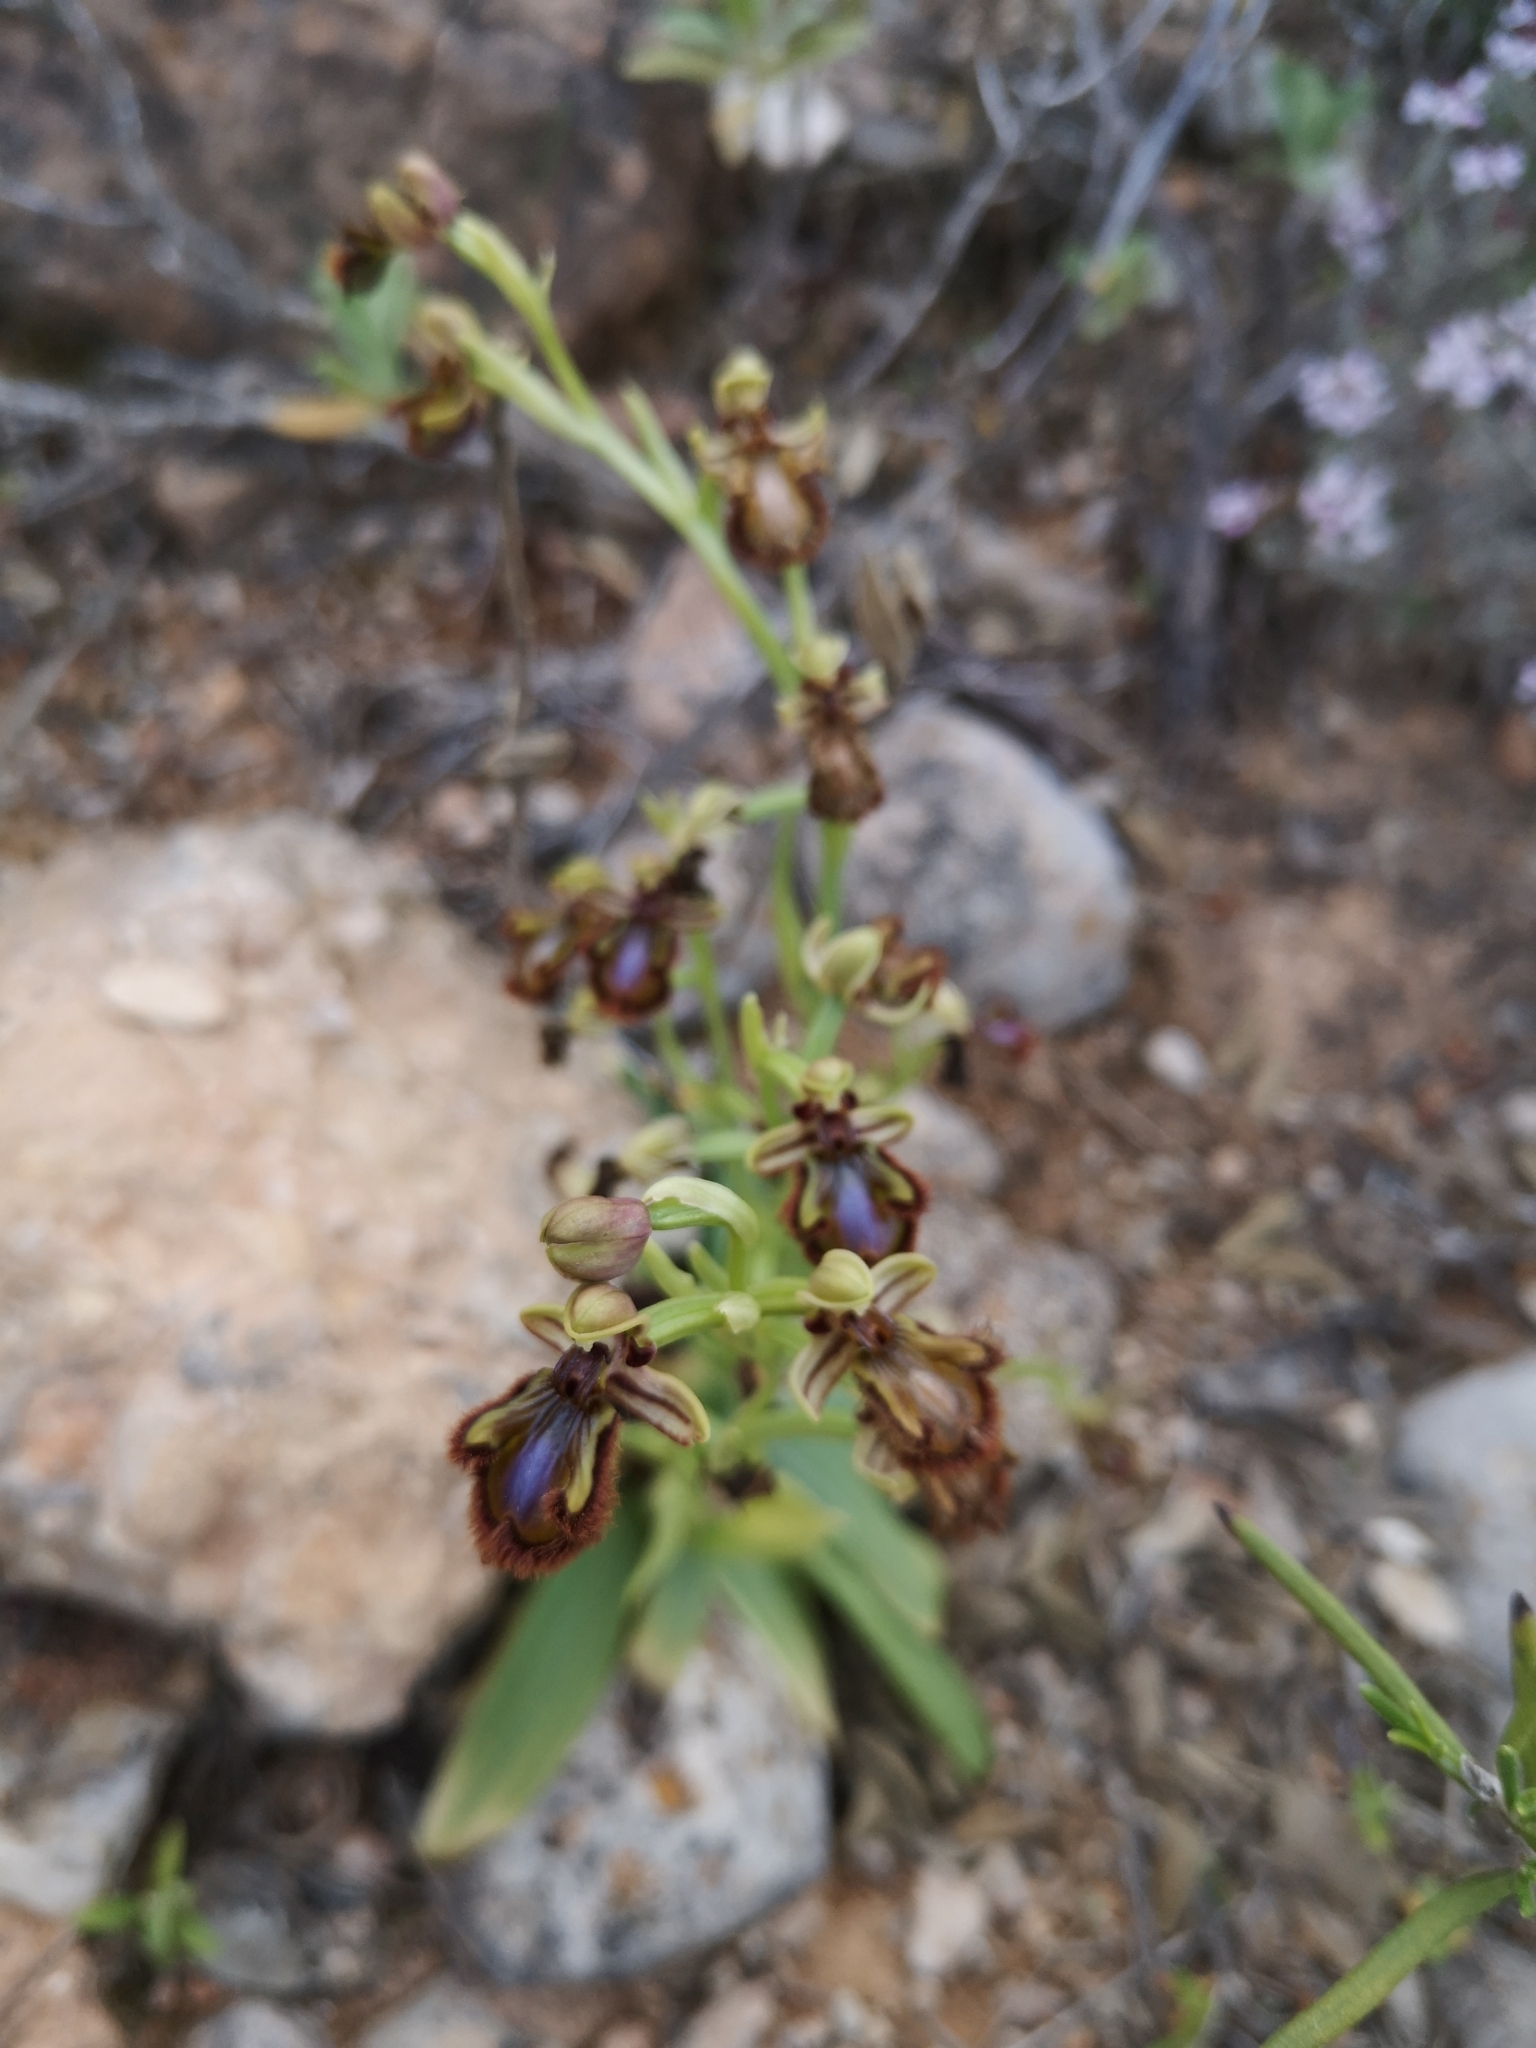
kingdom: Plantae
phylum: Tracheophyta
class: Liliopsida
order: Asparagales
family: Orchidaceae
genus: Ophrys
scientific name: Ophrys speculum
